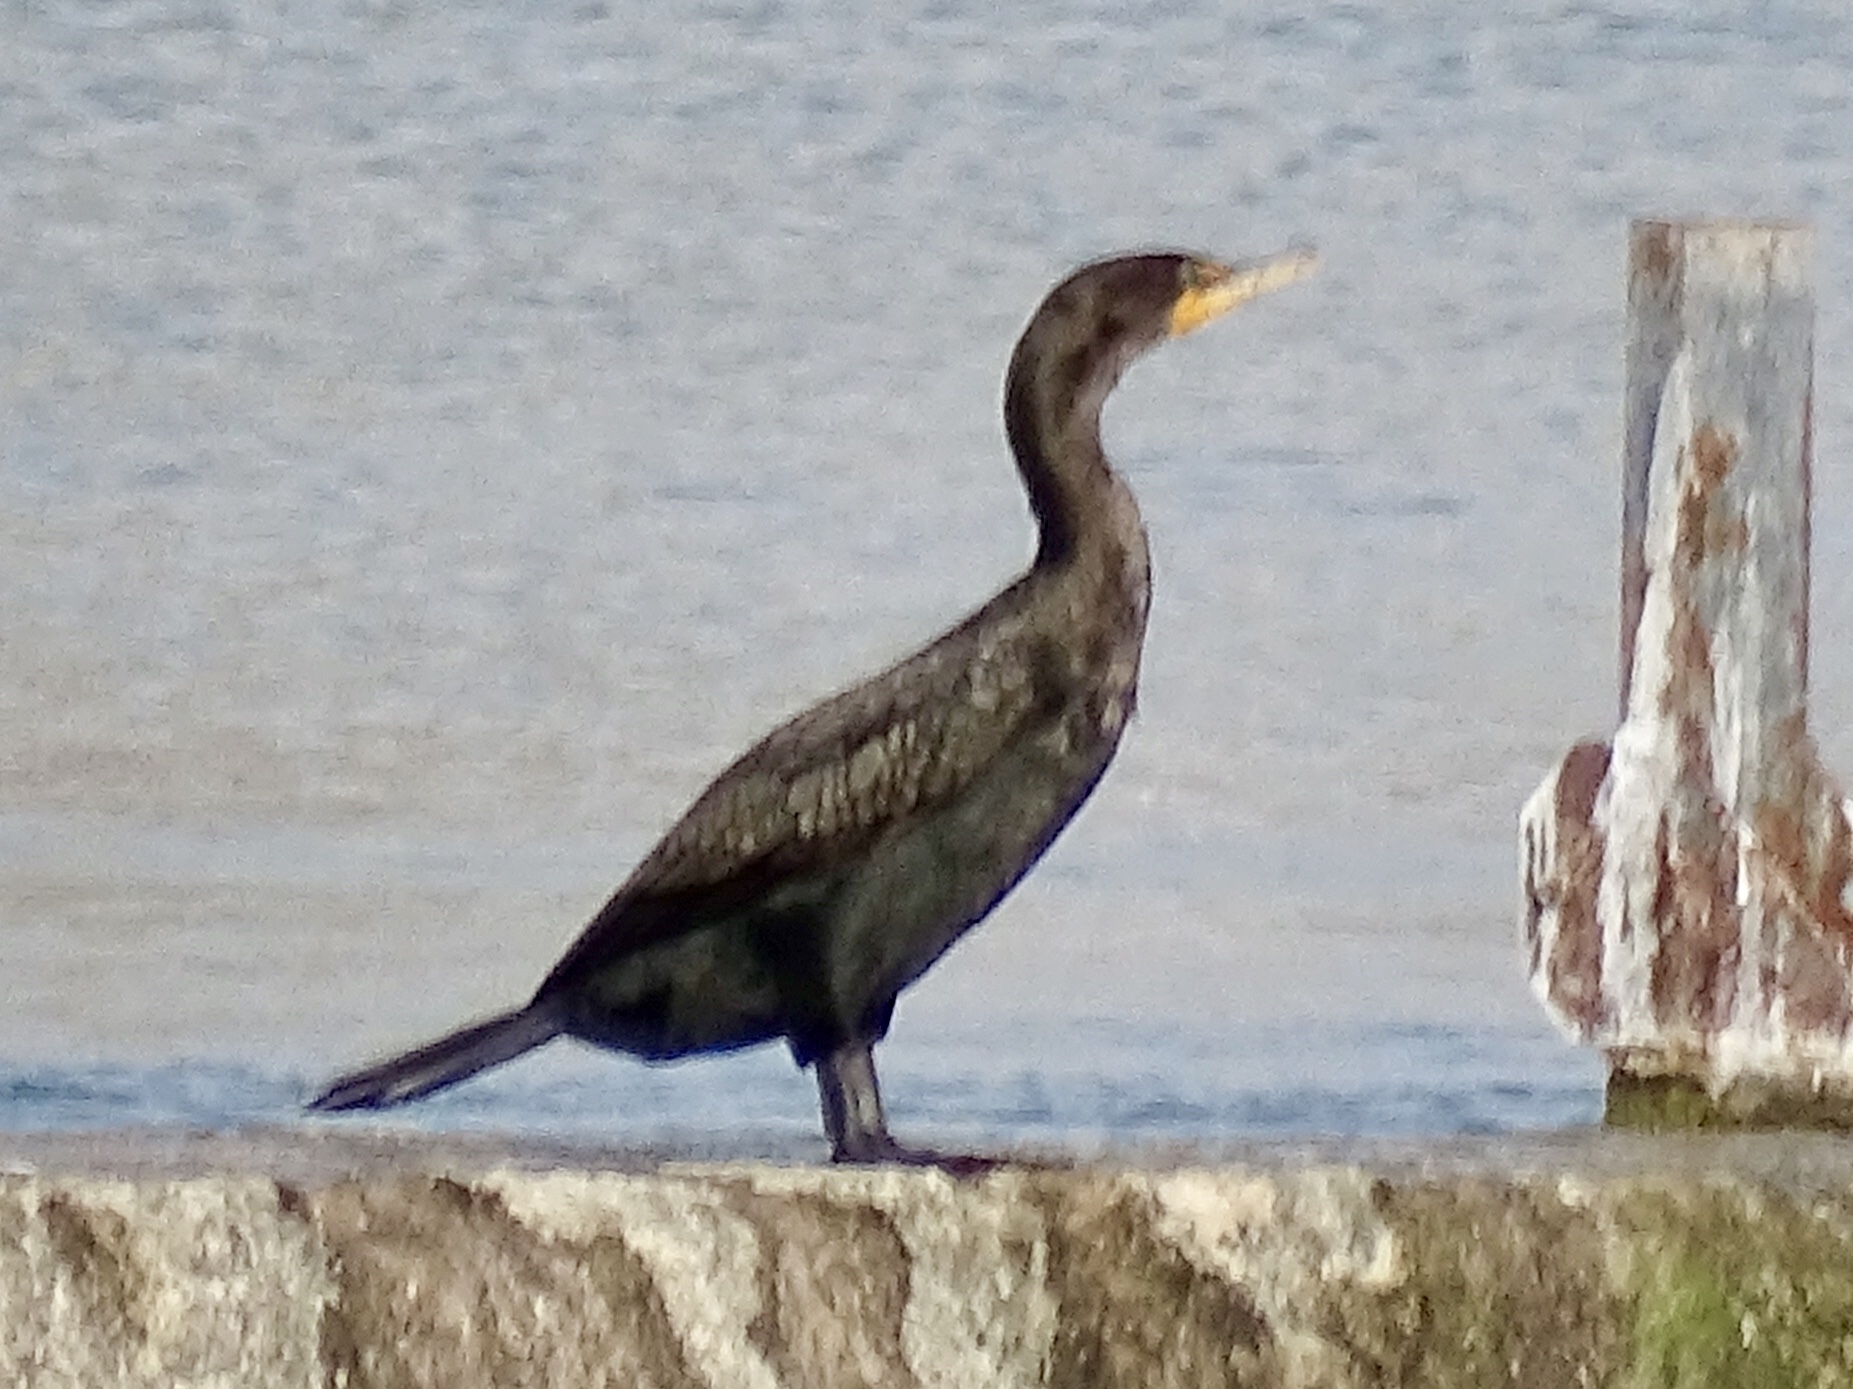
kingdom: Animalia
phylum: Chordata
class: Aves
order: Suliformes
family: Phalacrocoracidae
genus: Phalacrocorax
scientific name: Phalacrocorax auritus
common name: Double-crested cormorant
